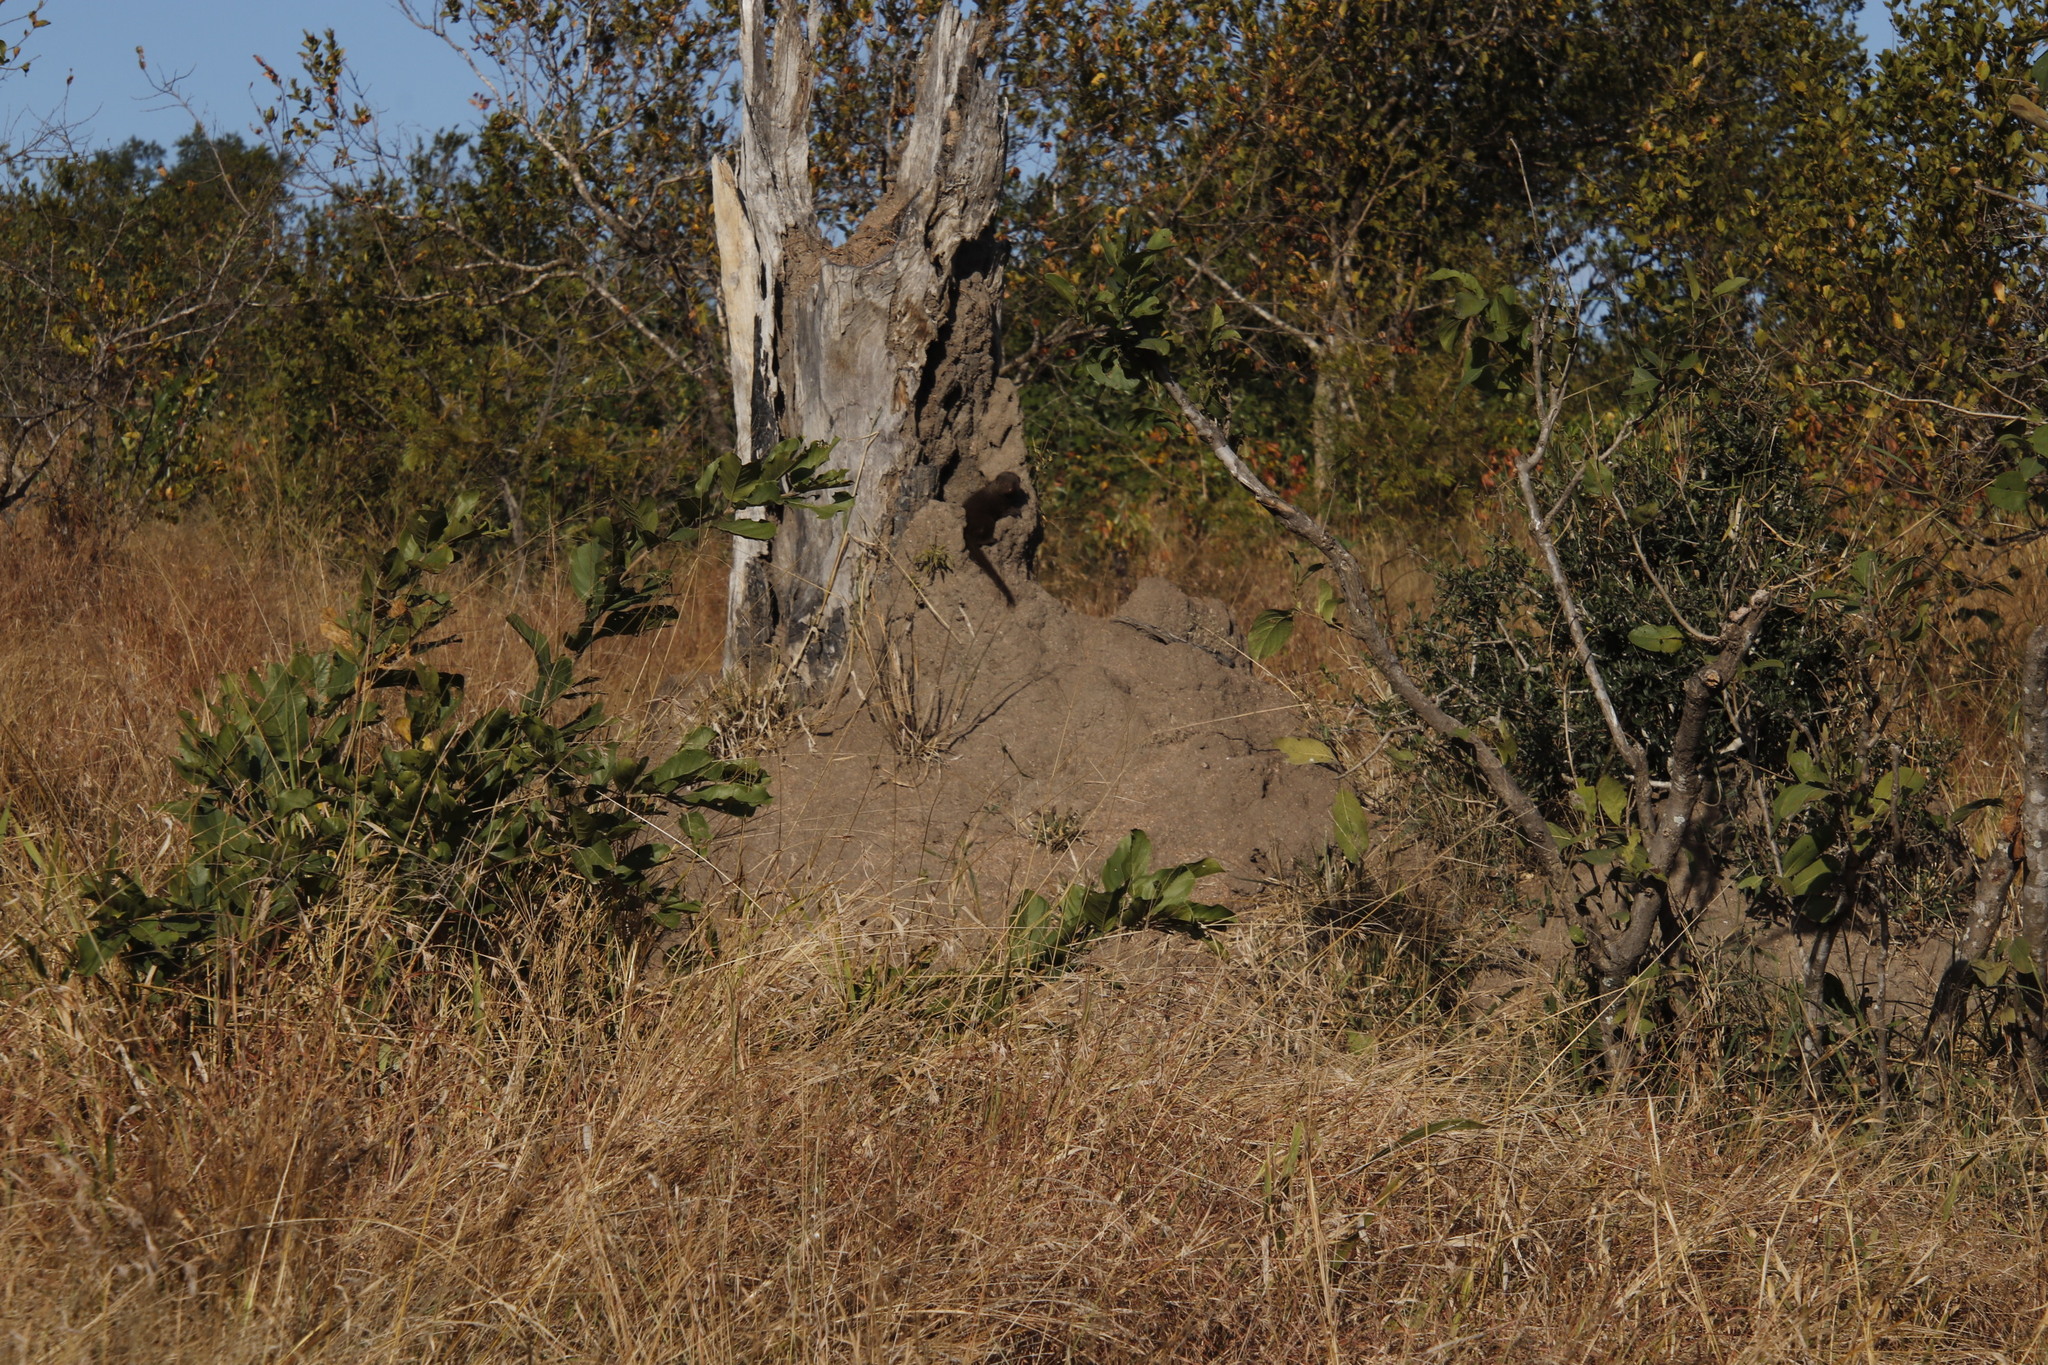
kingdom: Animalia
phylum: Chordata
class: Mammalia
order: Carnivora
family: Herpestidae
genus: Helogale
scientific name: Helogale parvula
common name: Common dwarf mongoose
